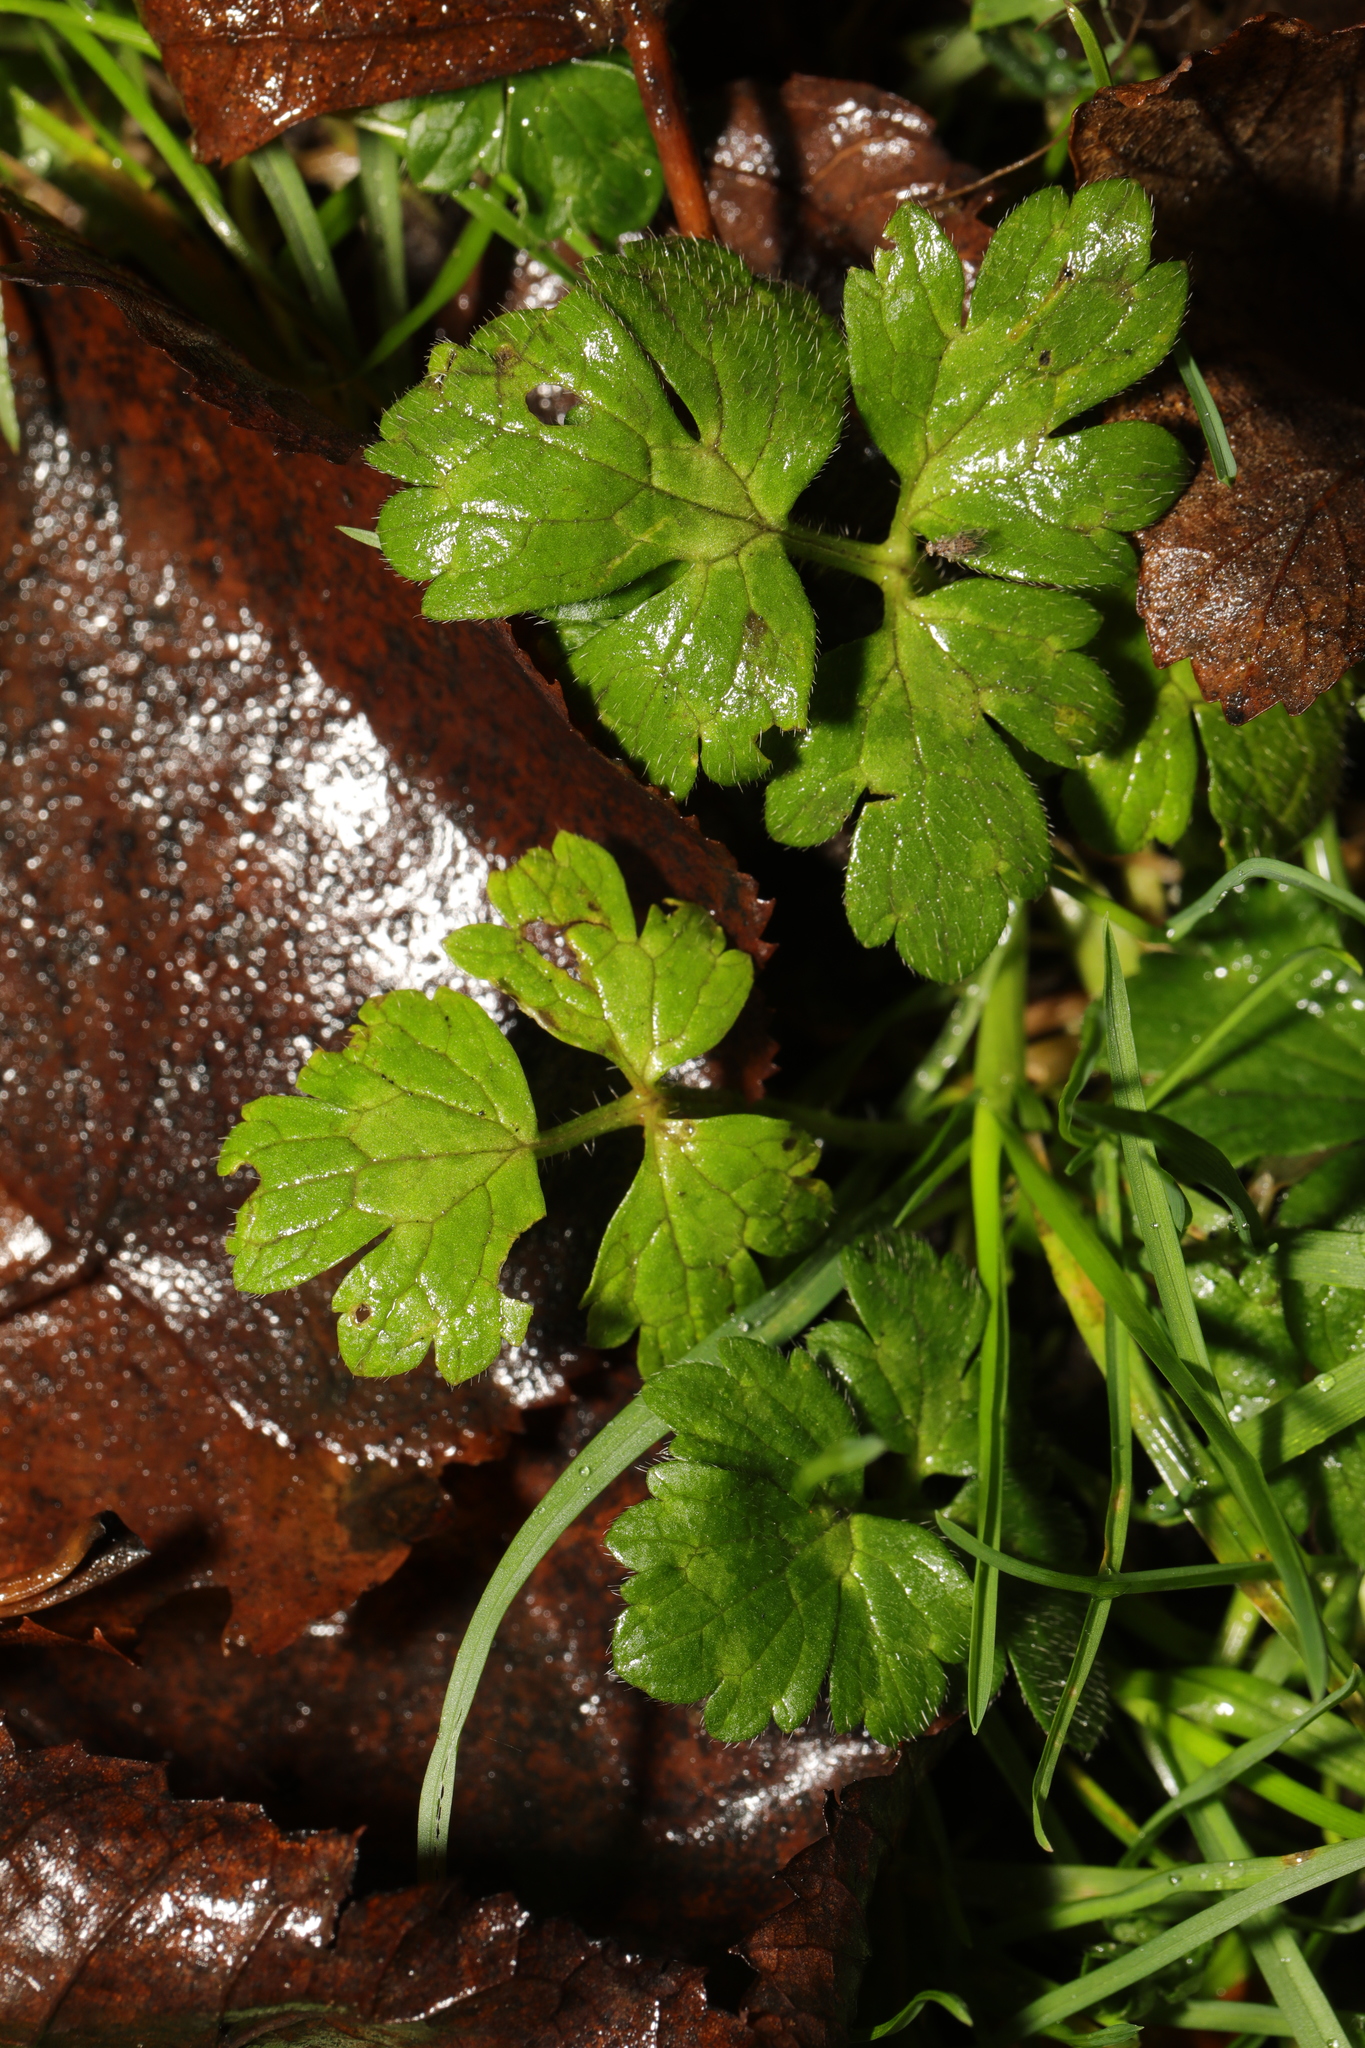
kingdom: Plantae
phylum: Tracheophyta
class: Magnoliopsida
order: Ranunculales
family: Ranunculaceae
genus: Ranunculus
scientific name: Ranunculus repens
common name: Creeping buttercup
